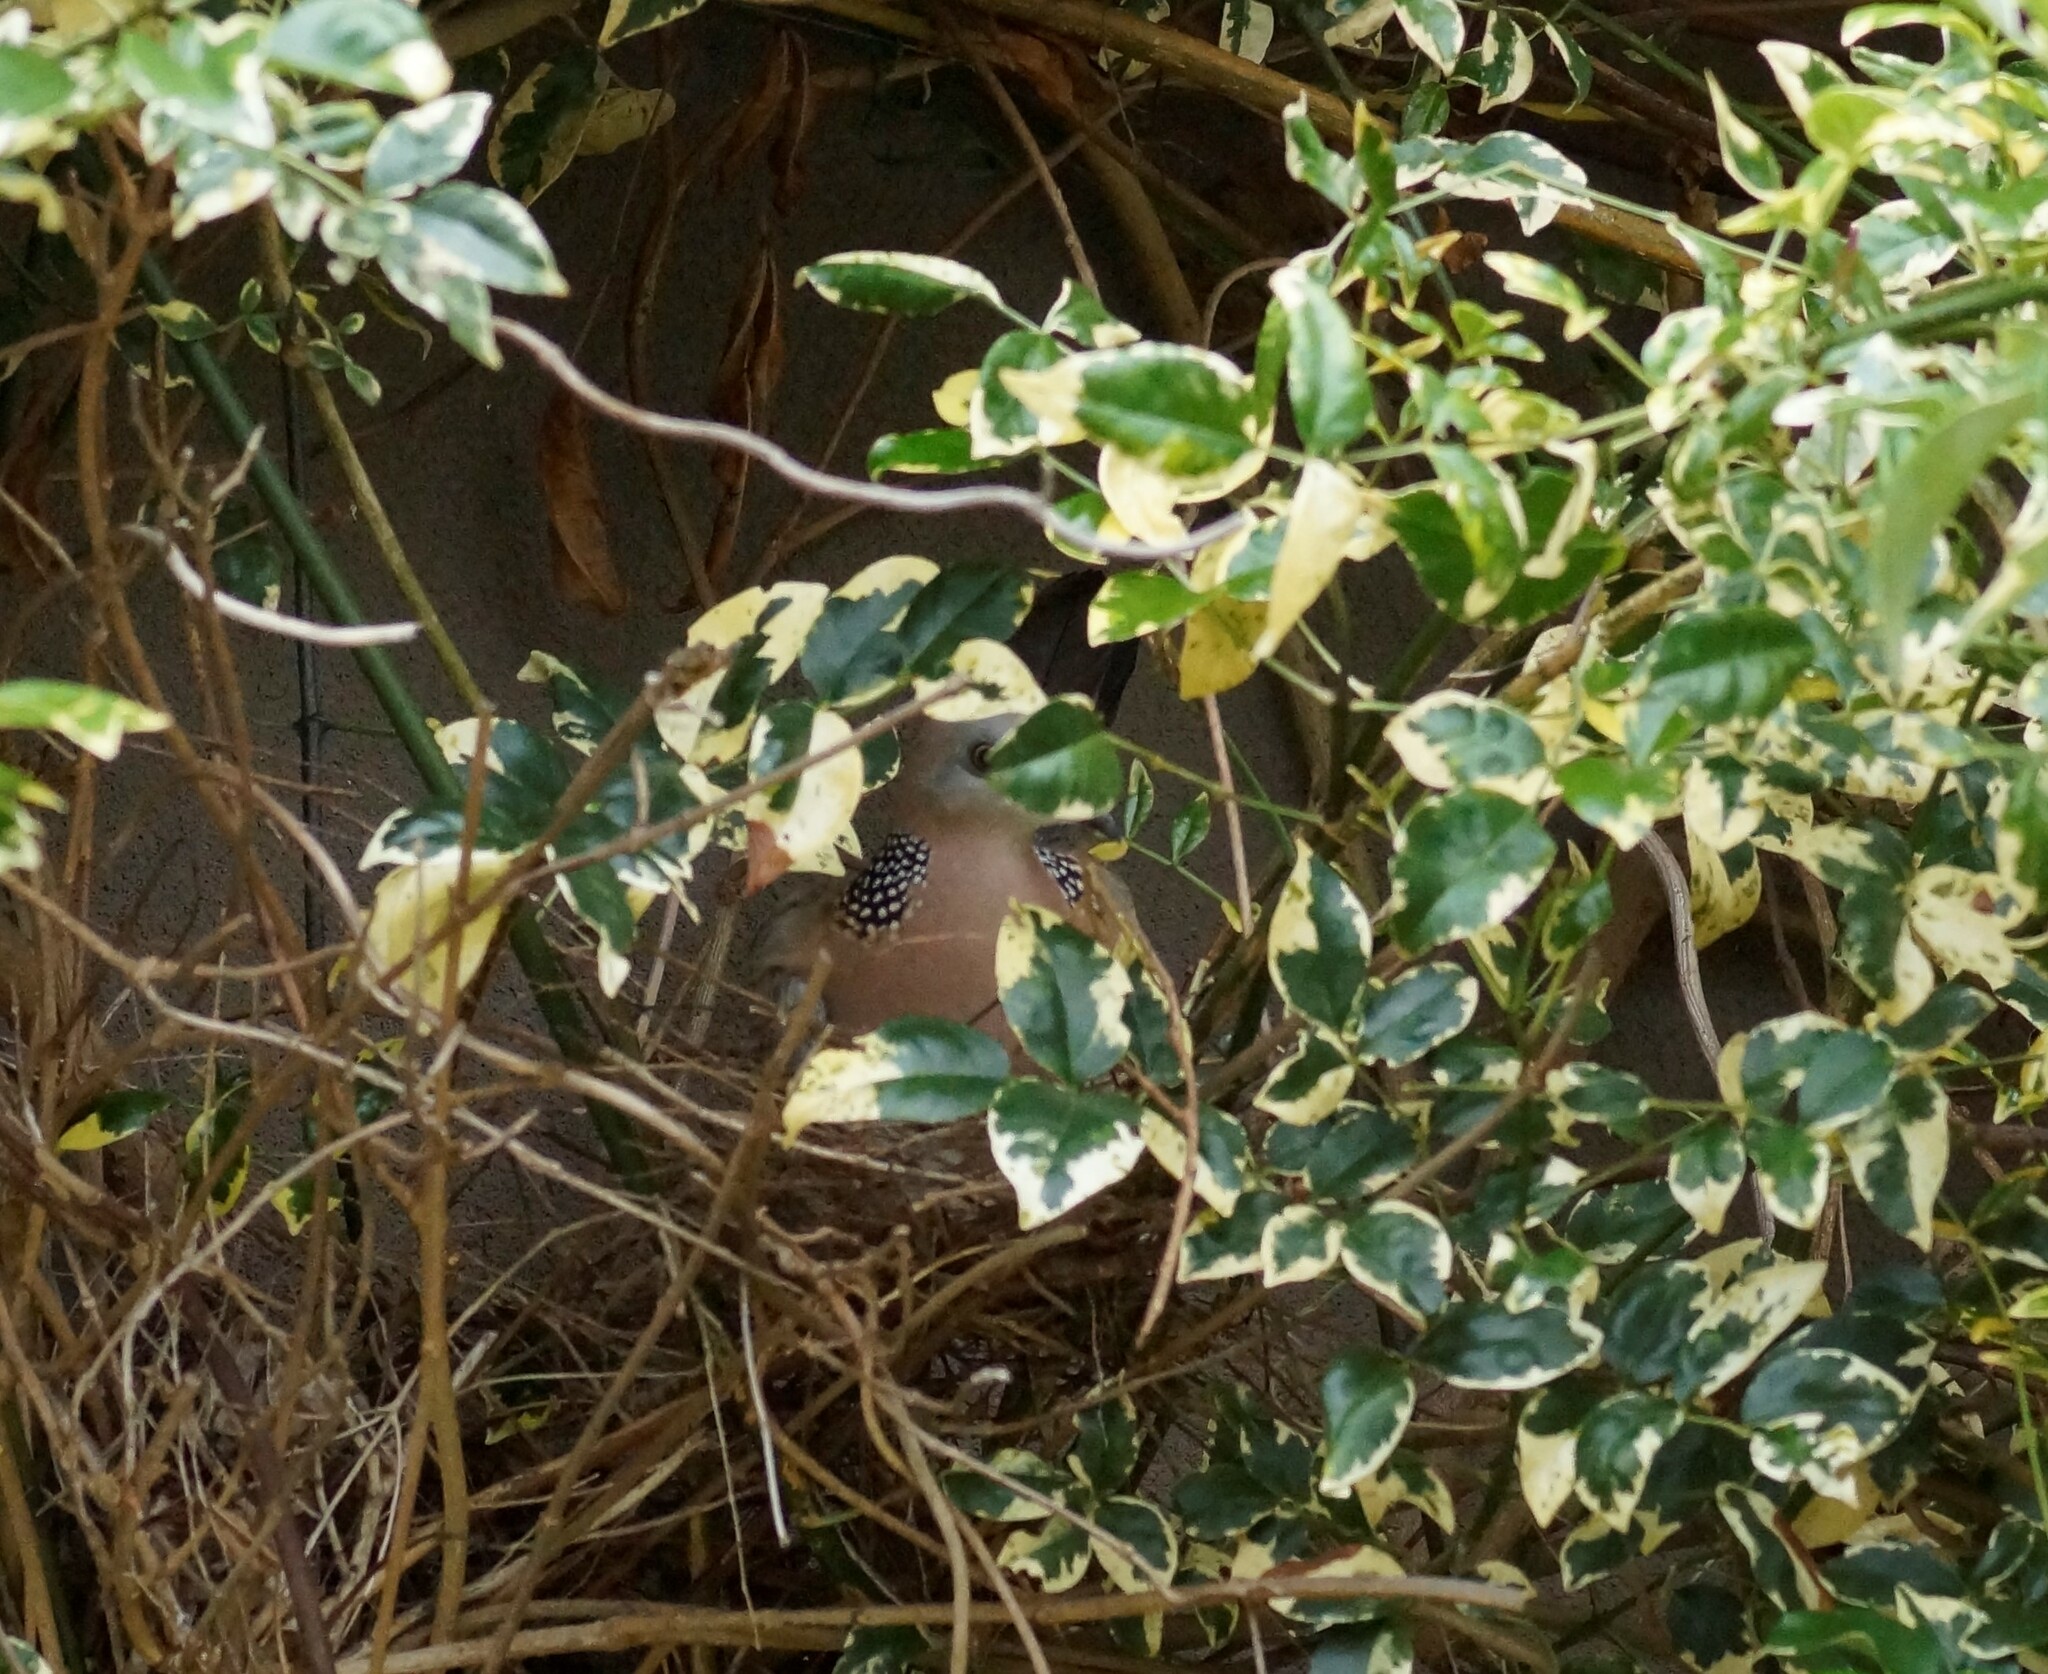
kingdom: Animalia
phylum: Chordata
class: Aves
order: Columbiformes
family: Columbidae
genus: Spilopelia
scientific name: Spilopelia chinensis
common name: Spotted dove
